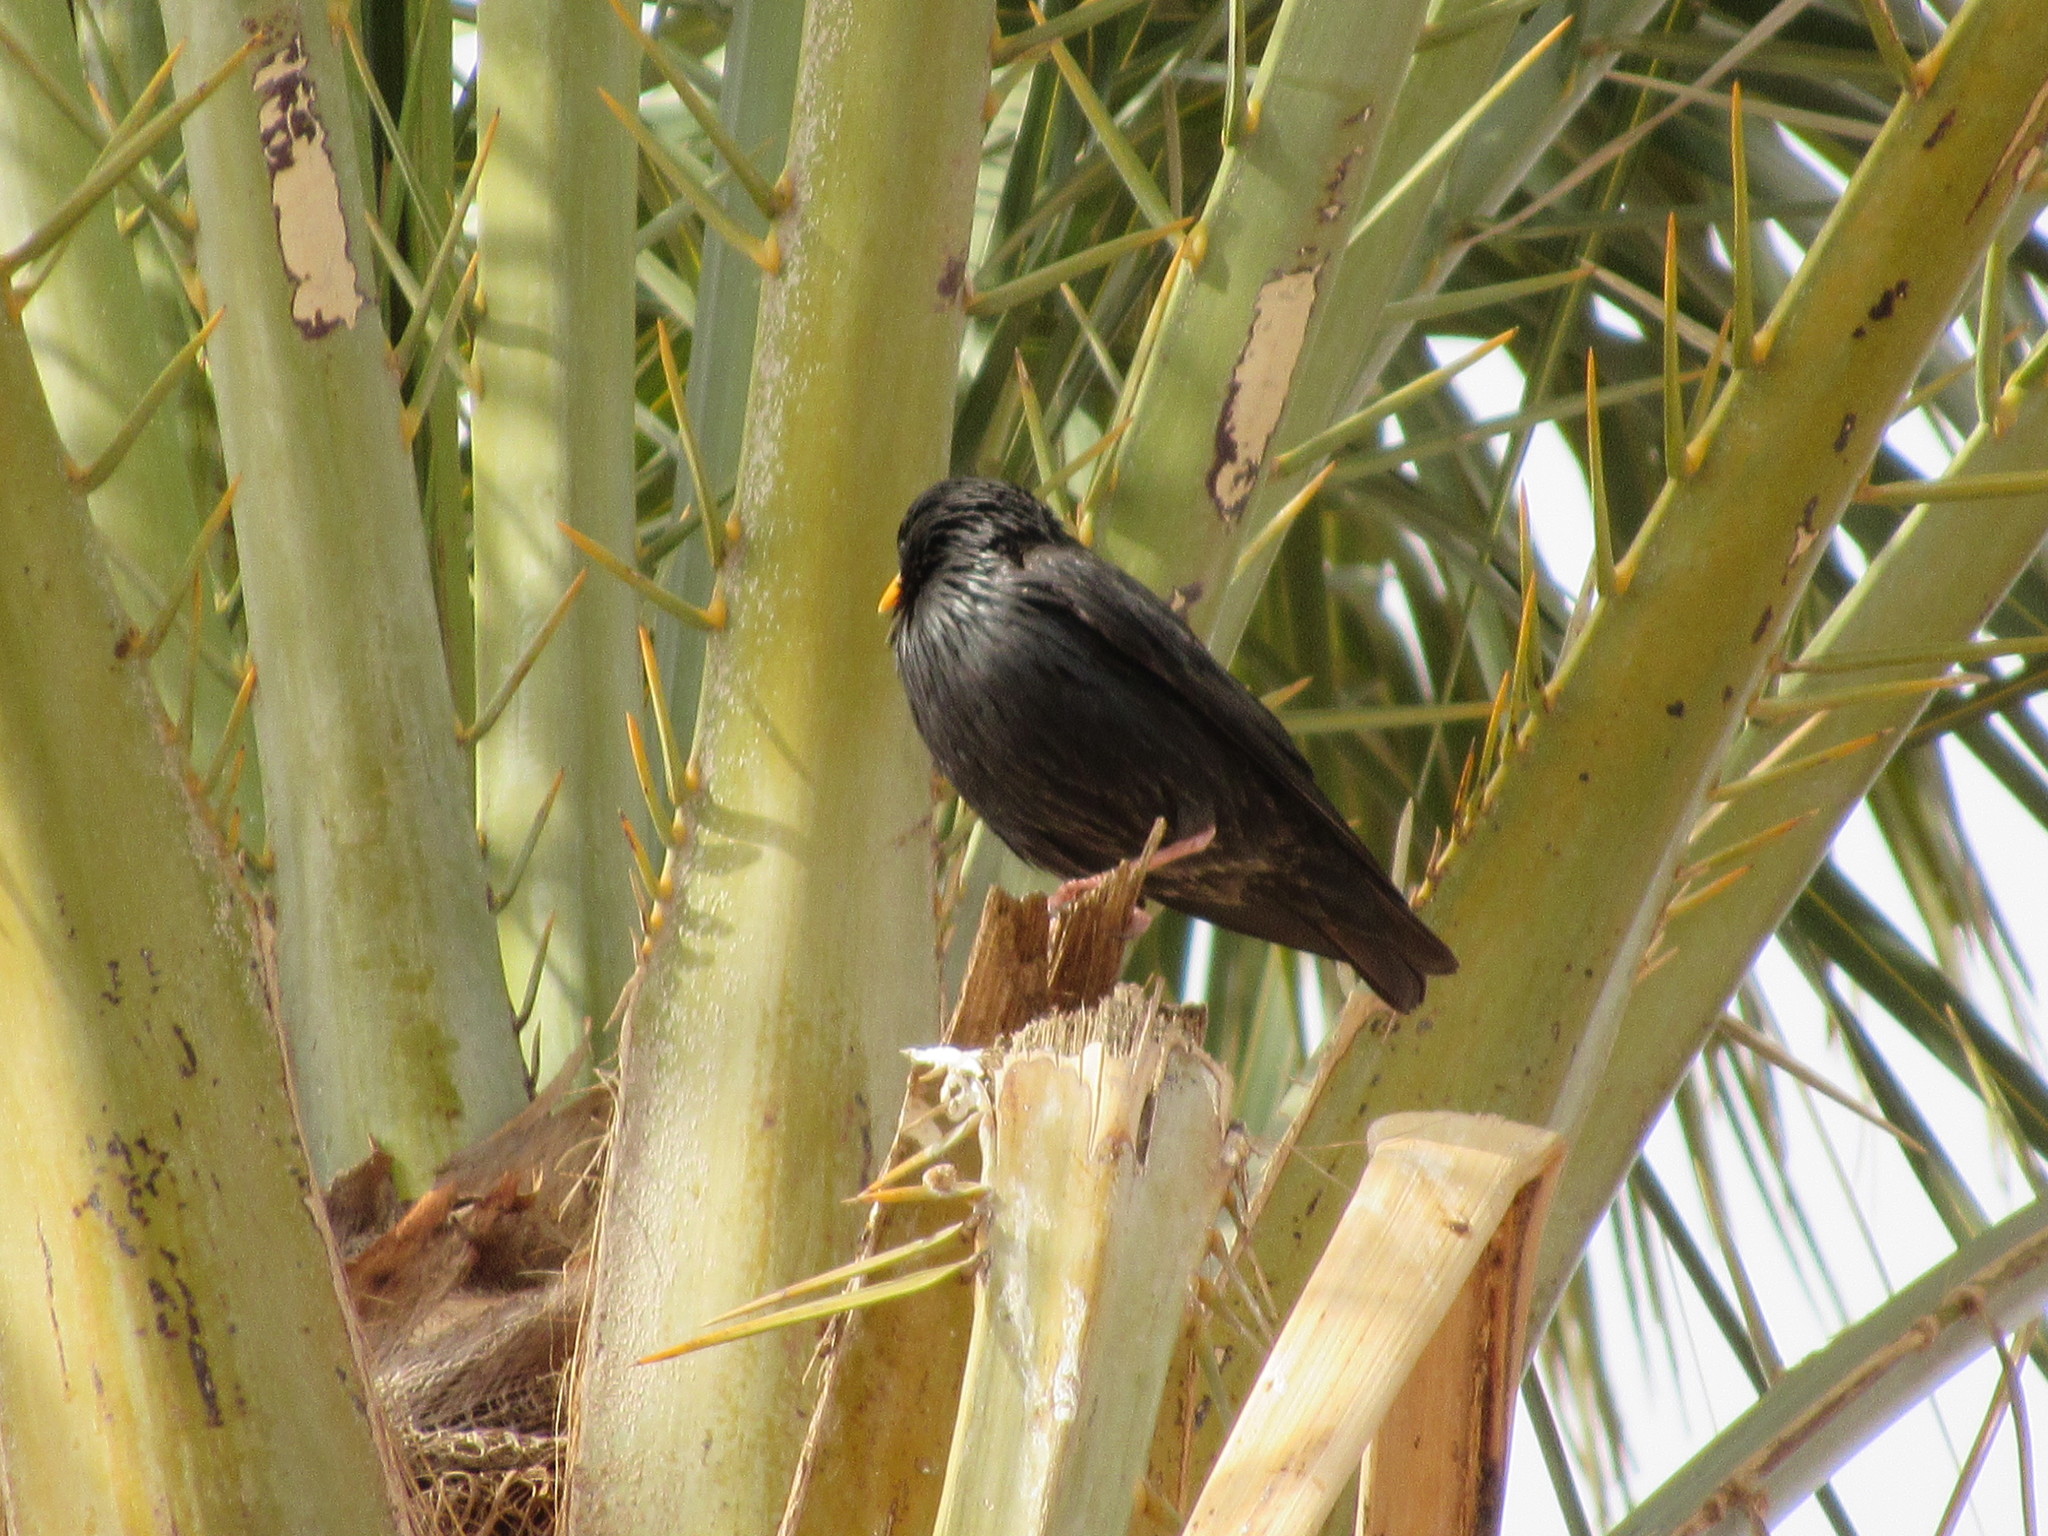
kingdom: Animalia
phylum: Chordata
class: Aves
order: Passeriformes
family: Sturnidae
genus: Sturnus
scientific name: Sturnus unicolor
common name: Spotless starling
